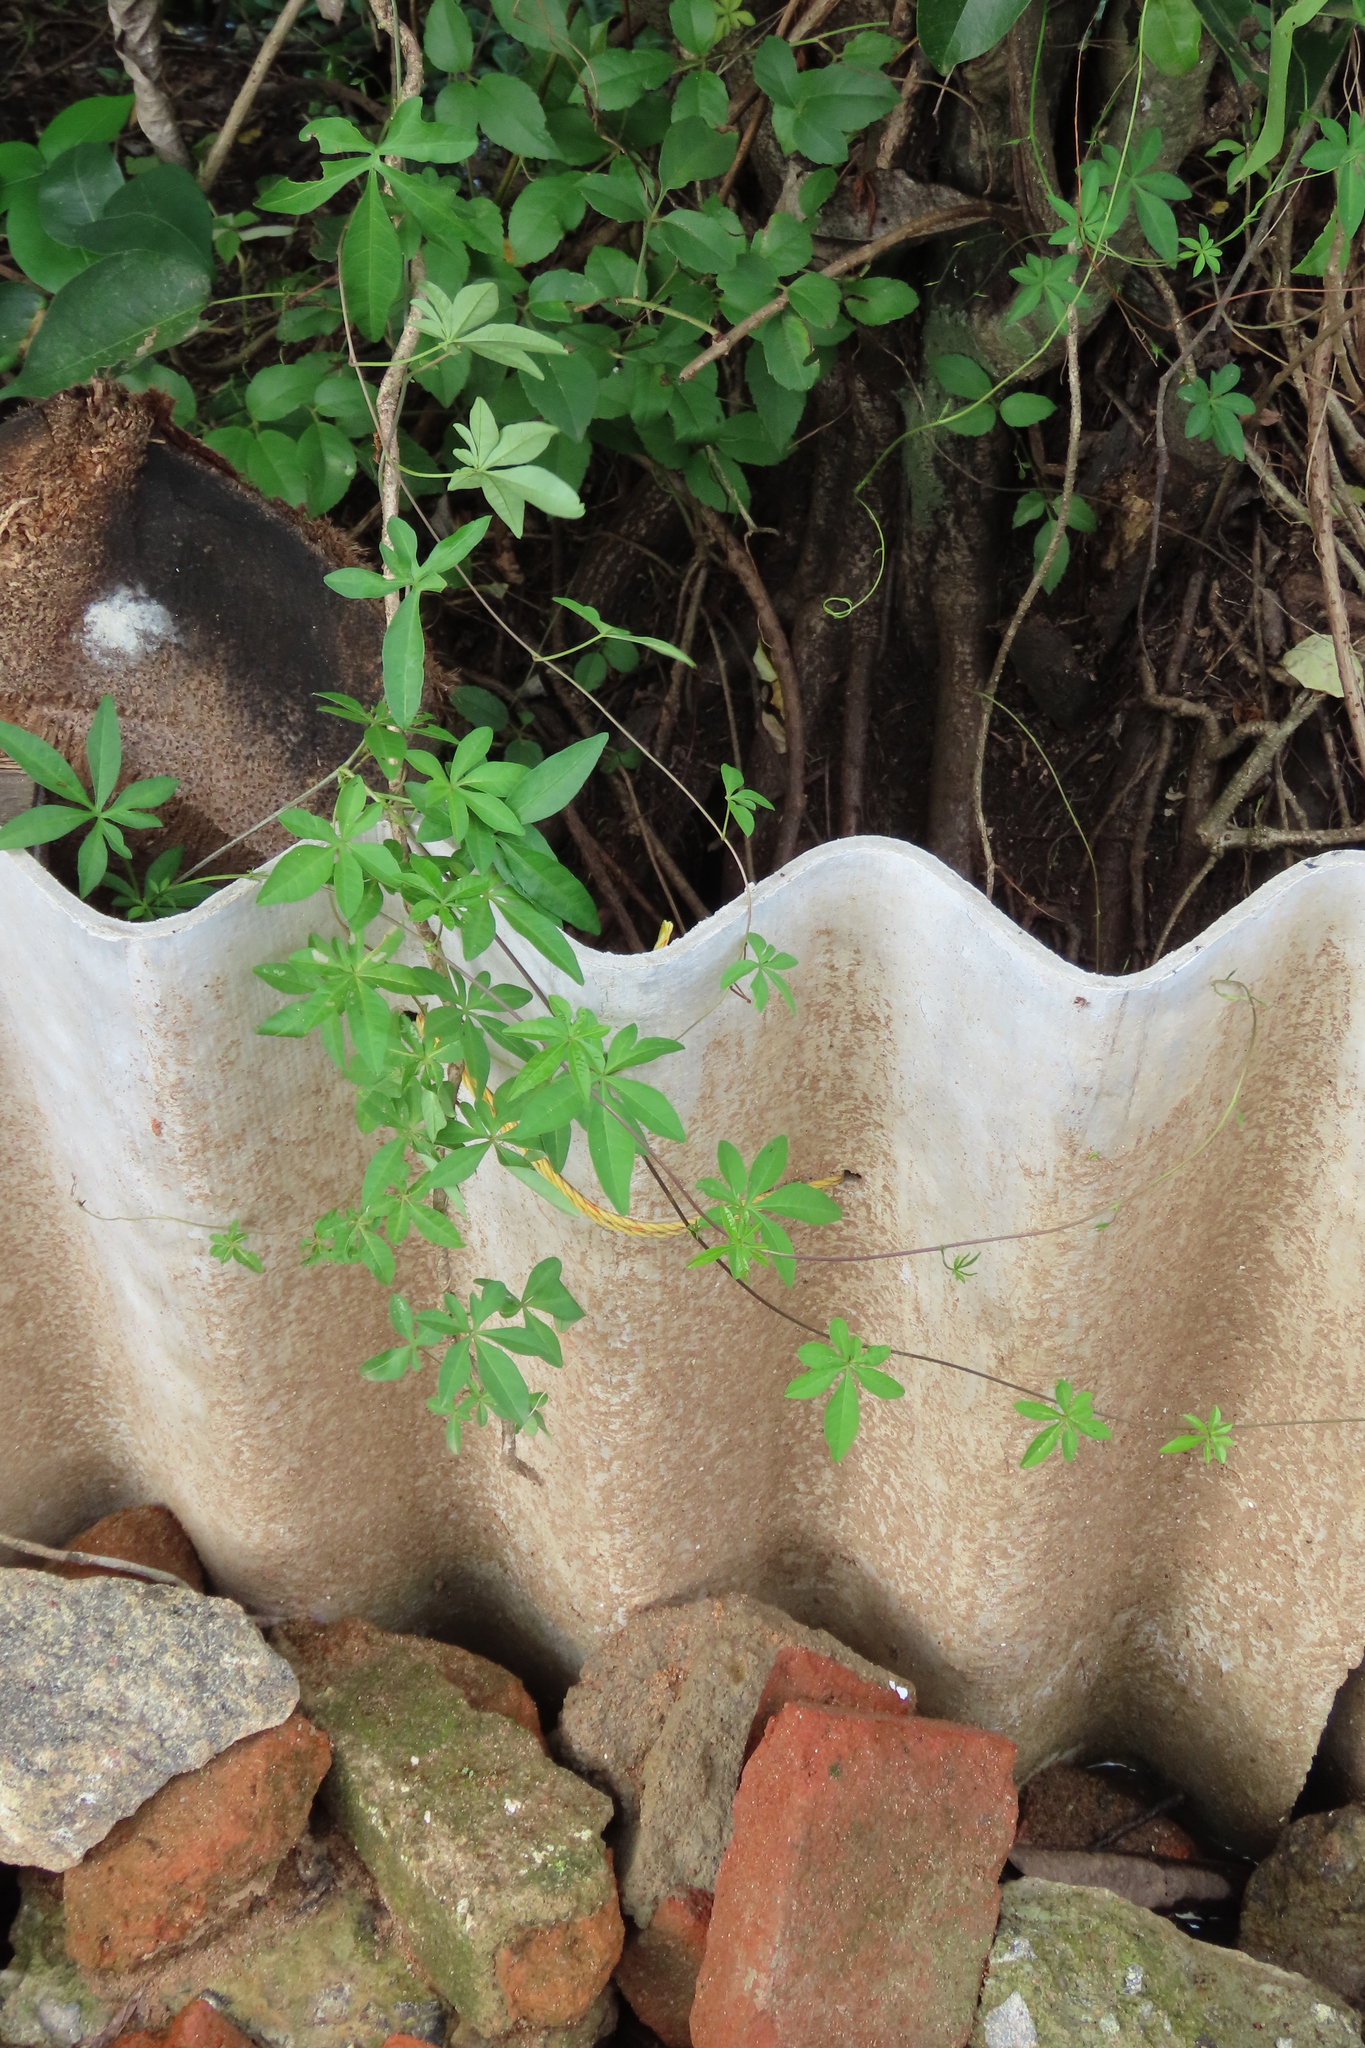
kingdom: Plantae
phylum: Tracheophyta
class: Magnoliopsida
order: Solanales
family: Convolvulaceae
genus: Ipomoea
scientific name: Ipomoea cairica
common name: Mile a minute vine
